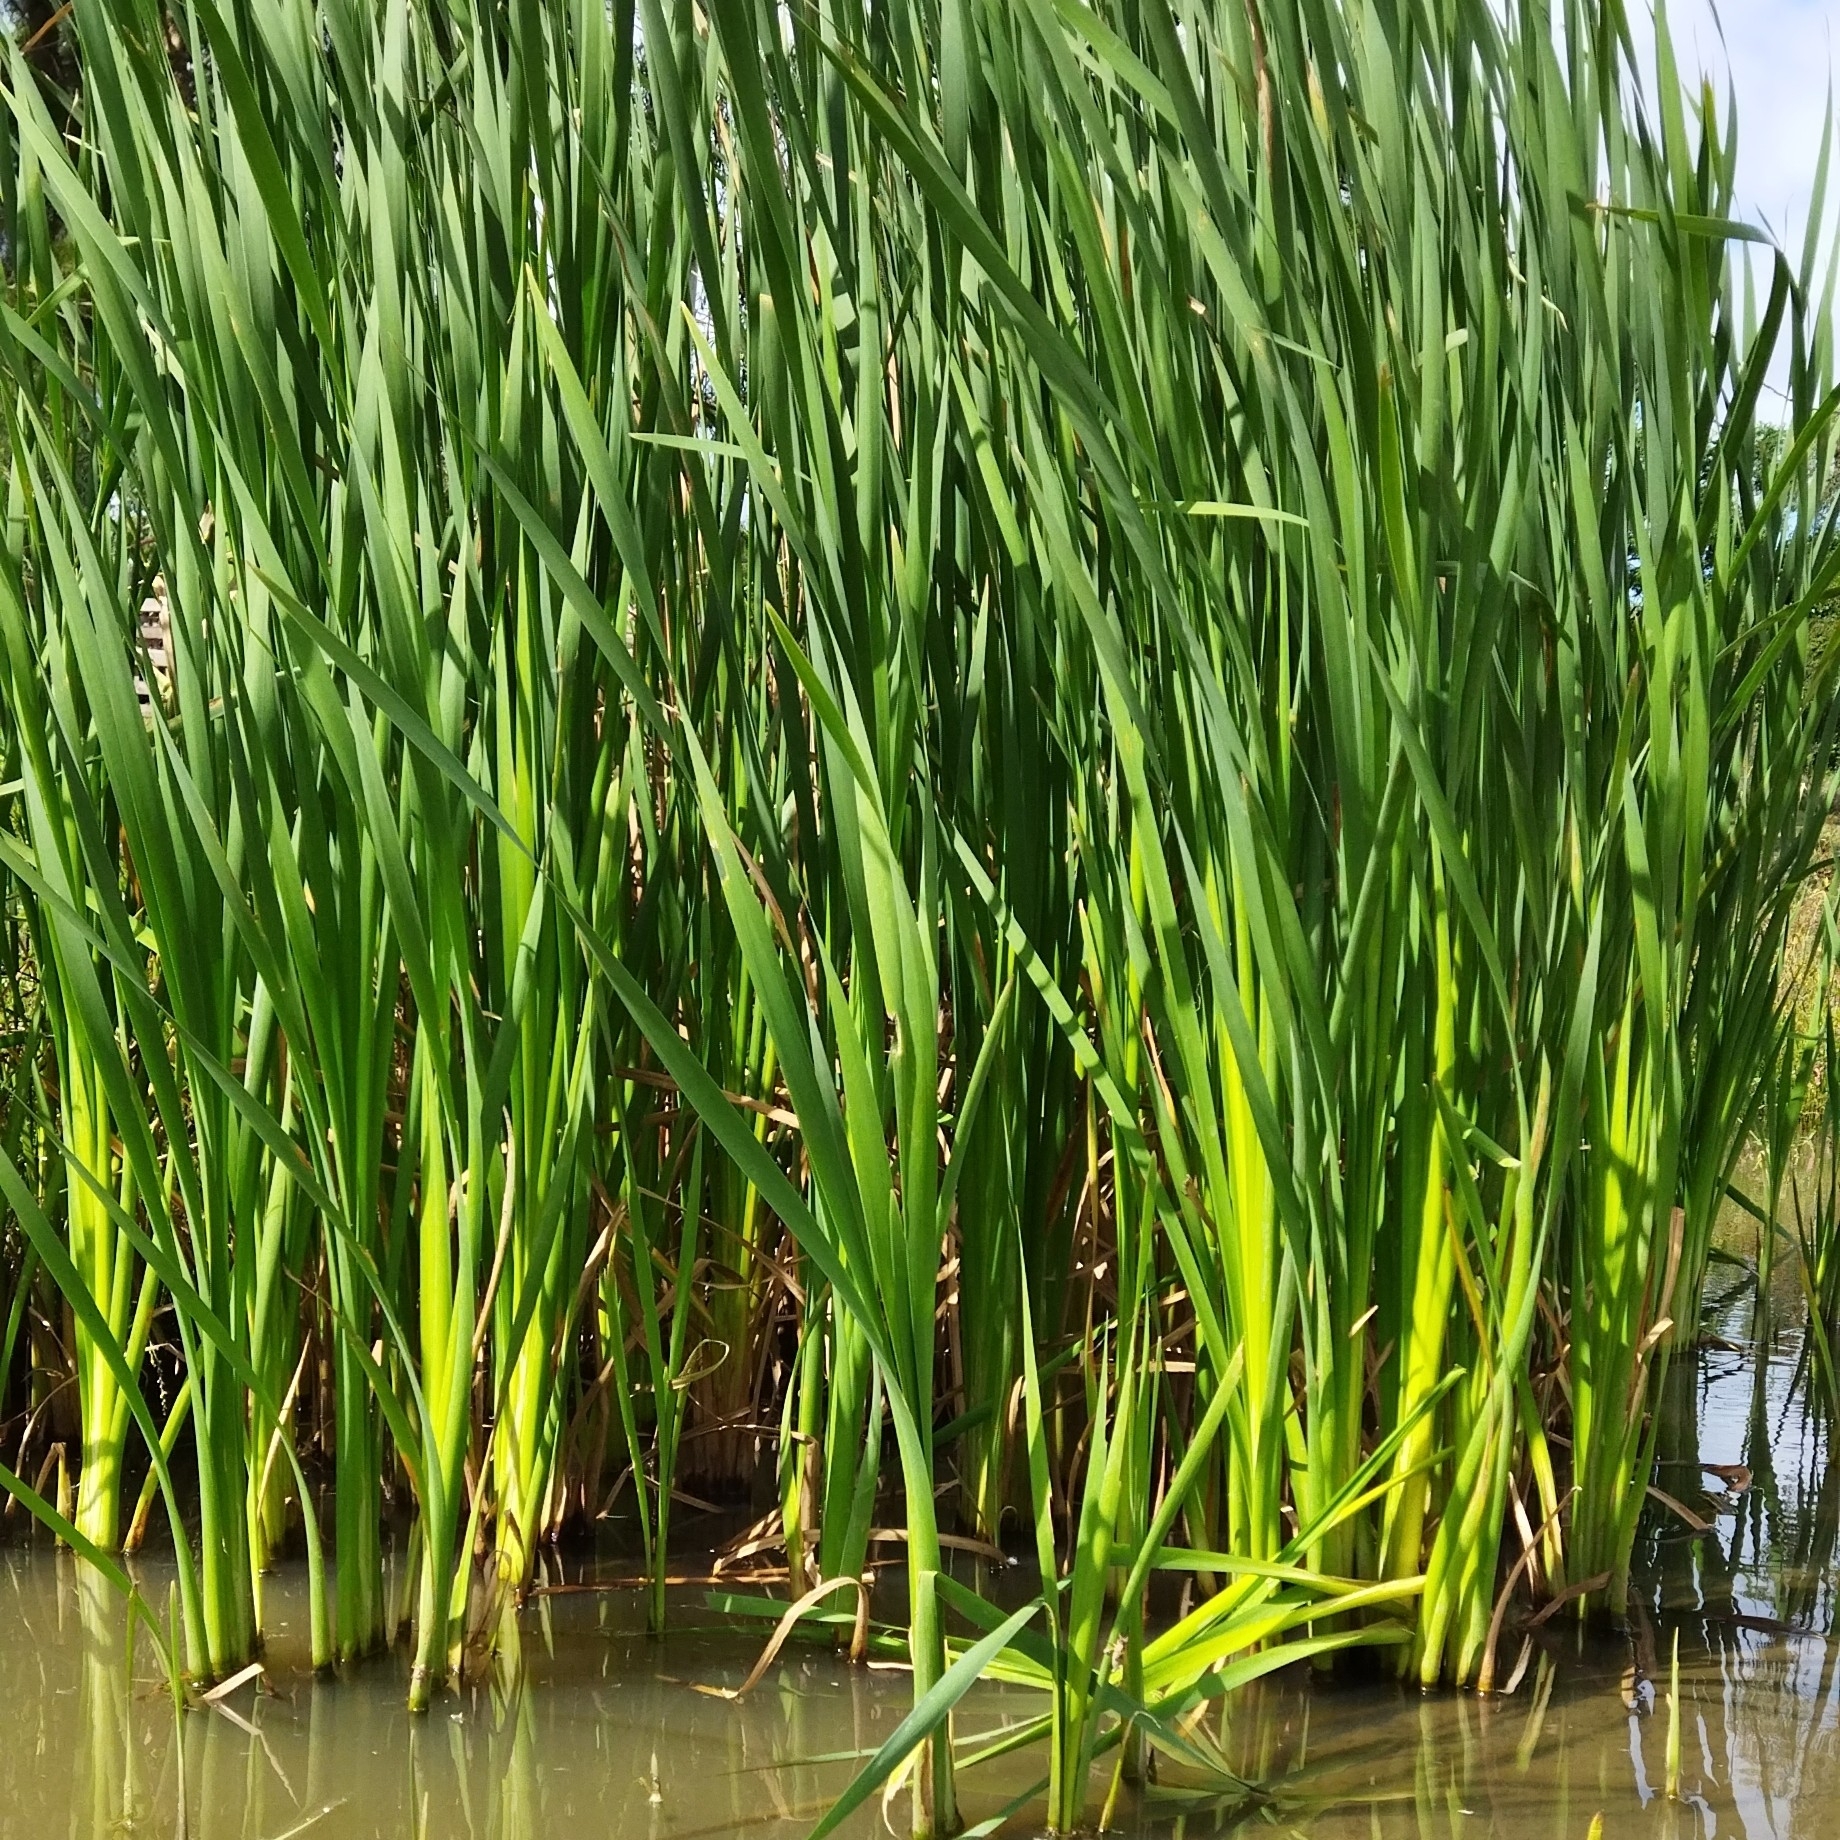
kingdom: Plantae
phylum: Tracheophyta
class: Liliopsida
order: Poales
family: Typhaceae
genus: Typha
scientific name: Typha latifolia
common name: Broadleaf cattail
